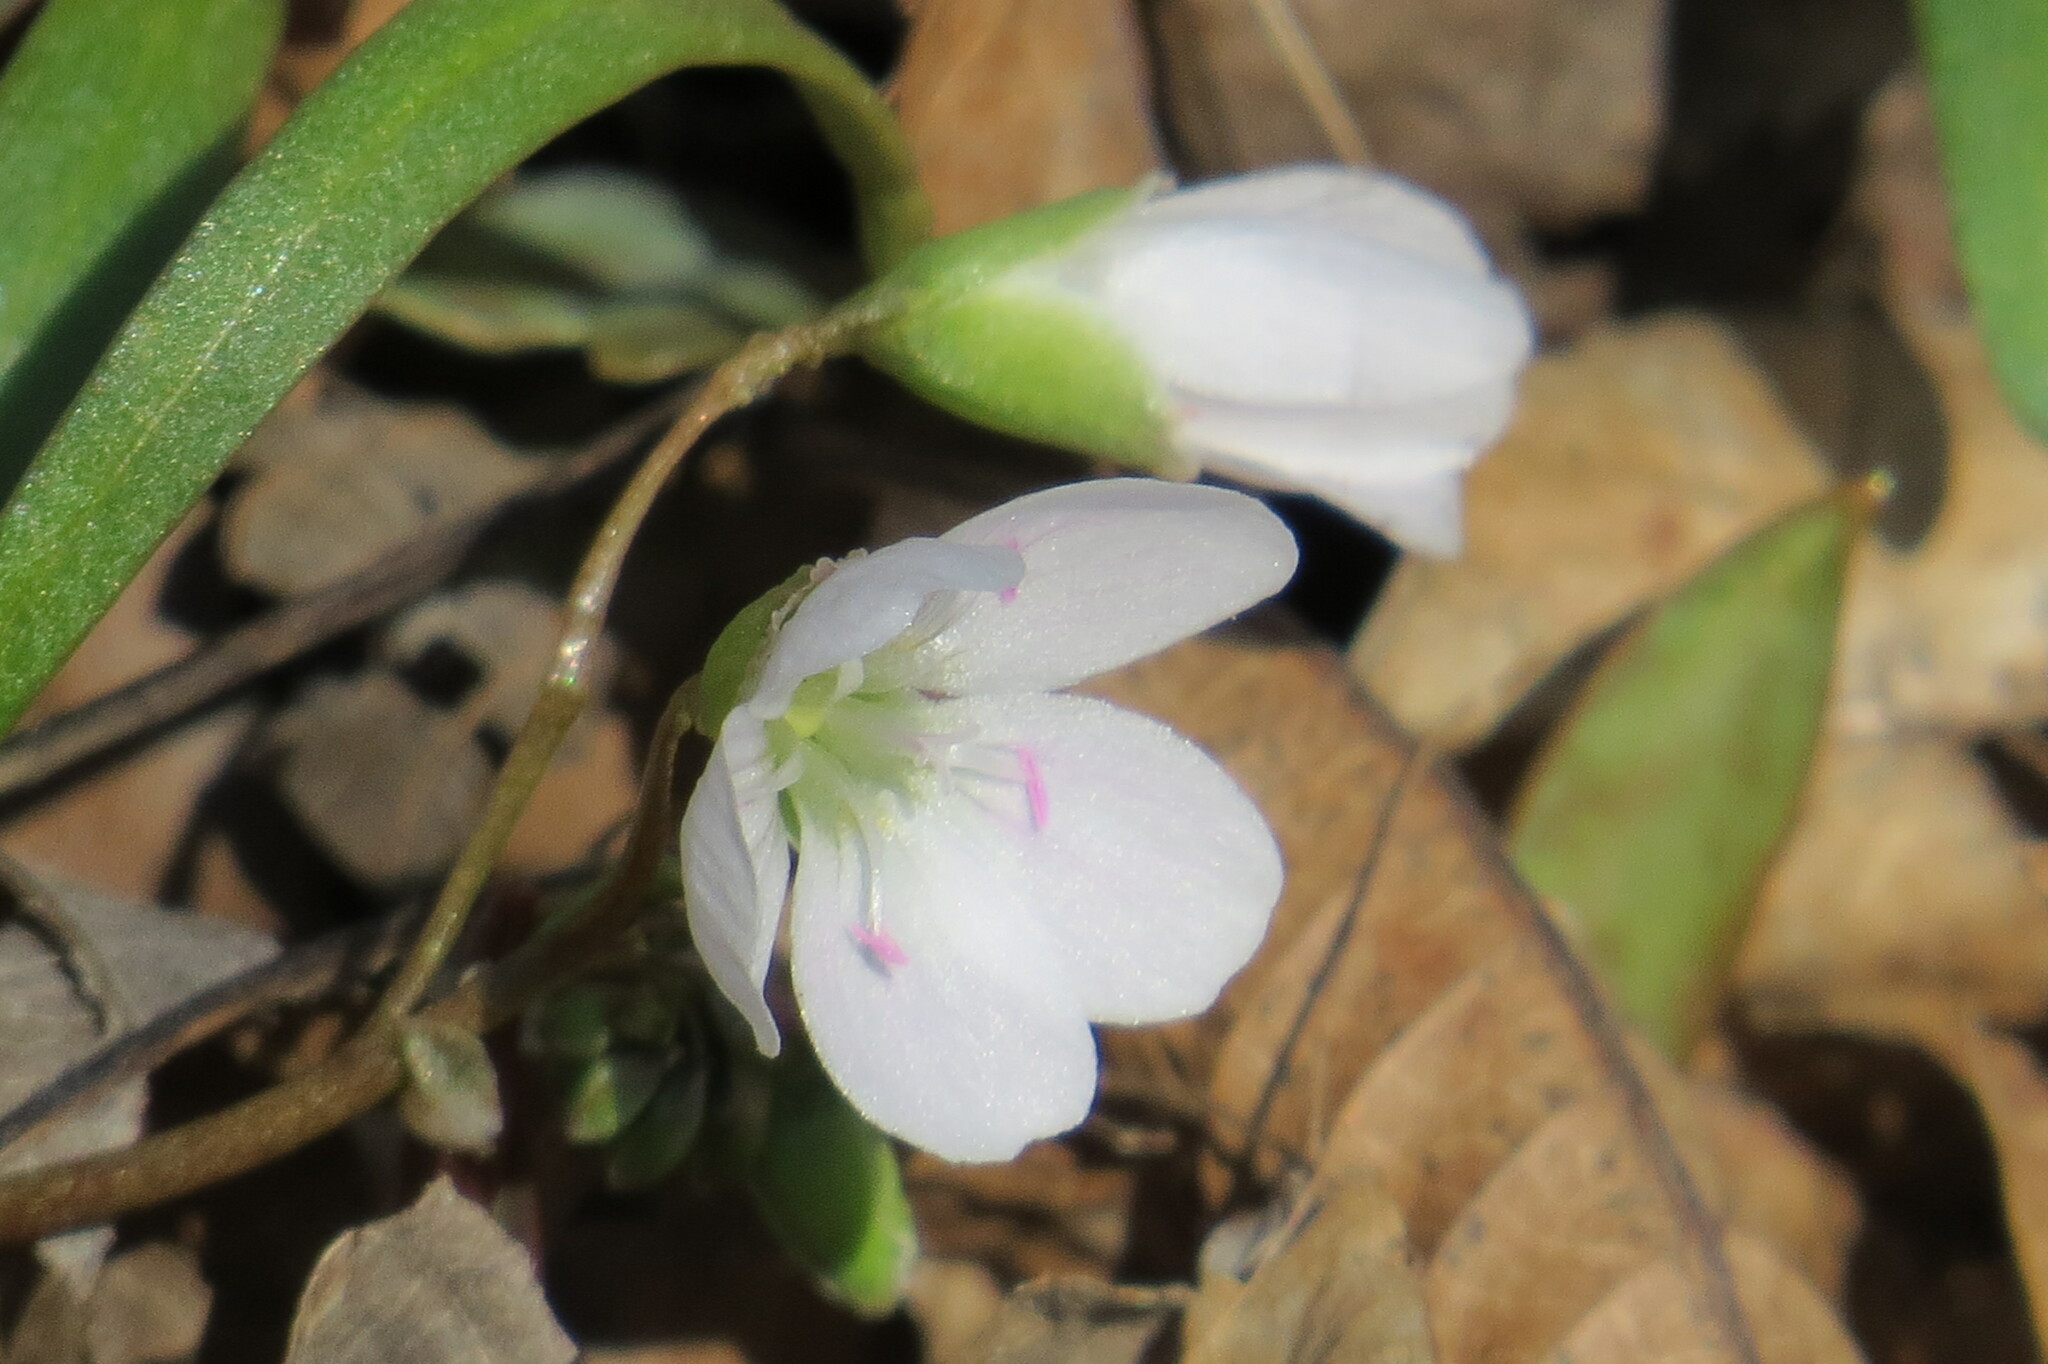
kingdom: Plantae
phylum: Tracheophyta
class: Magnoliopsida
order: Caryophyllales
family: Montiaceae
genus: Claytonia
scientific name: Claytonia virginica
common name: Virginia springbeauty
